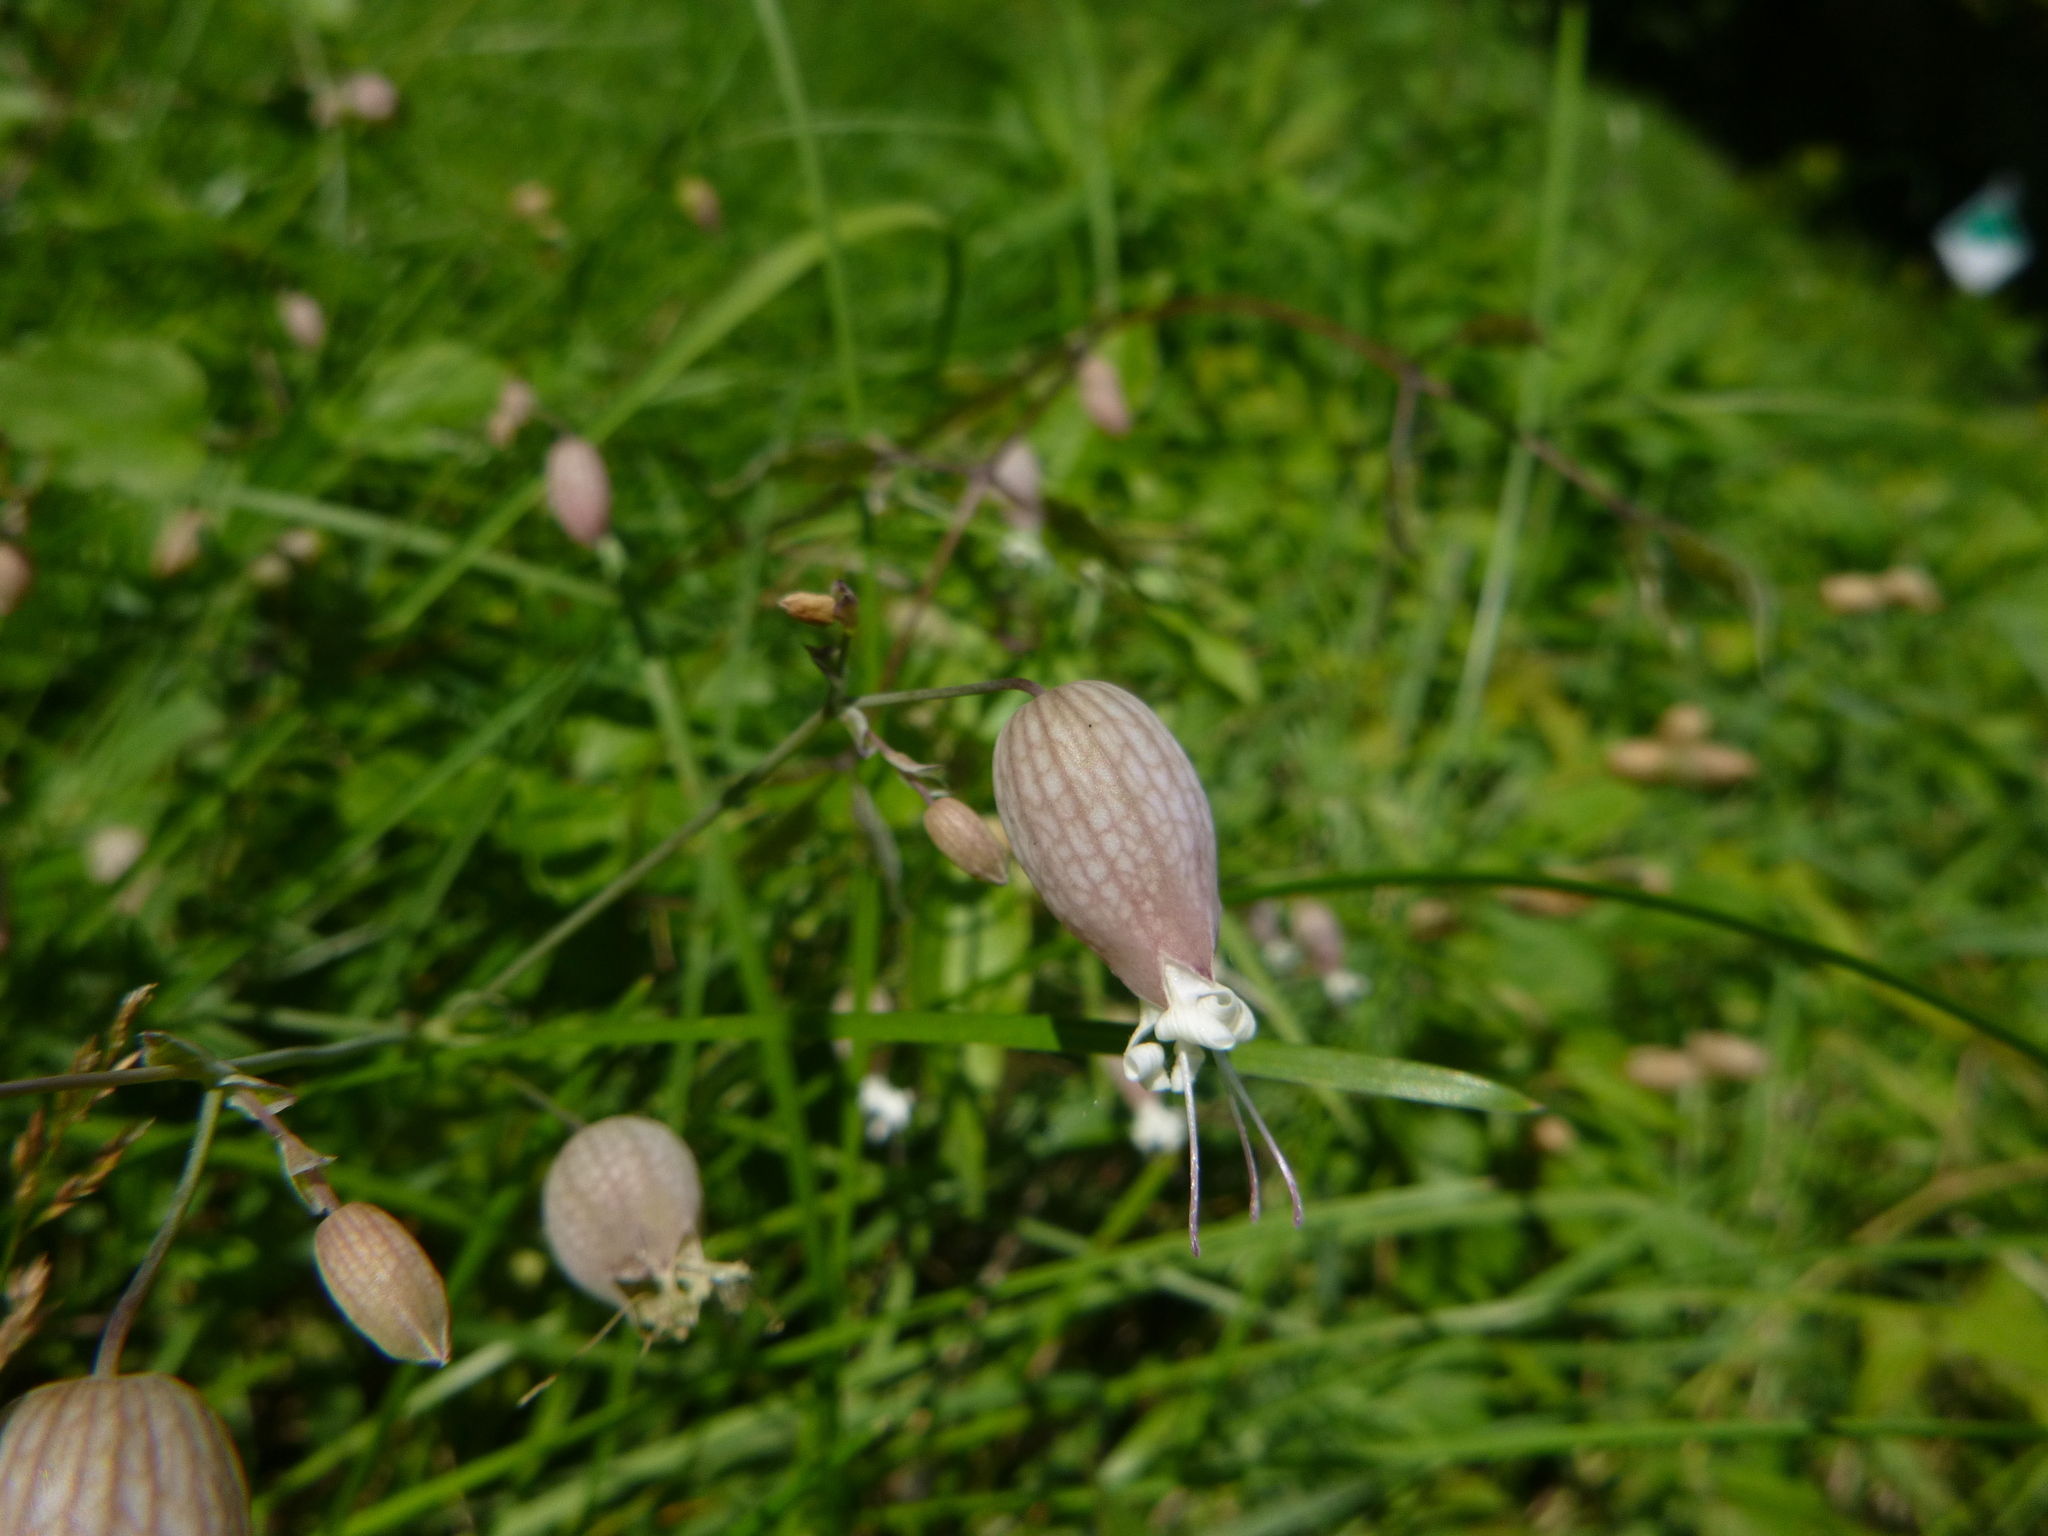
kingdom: Plantae
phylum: Tracheophyta
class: Magnoliopsida
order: Caryophyllales
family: Caryophyllaceae
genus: Silene
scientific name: Silene vulgaris
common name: Bladder campion
